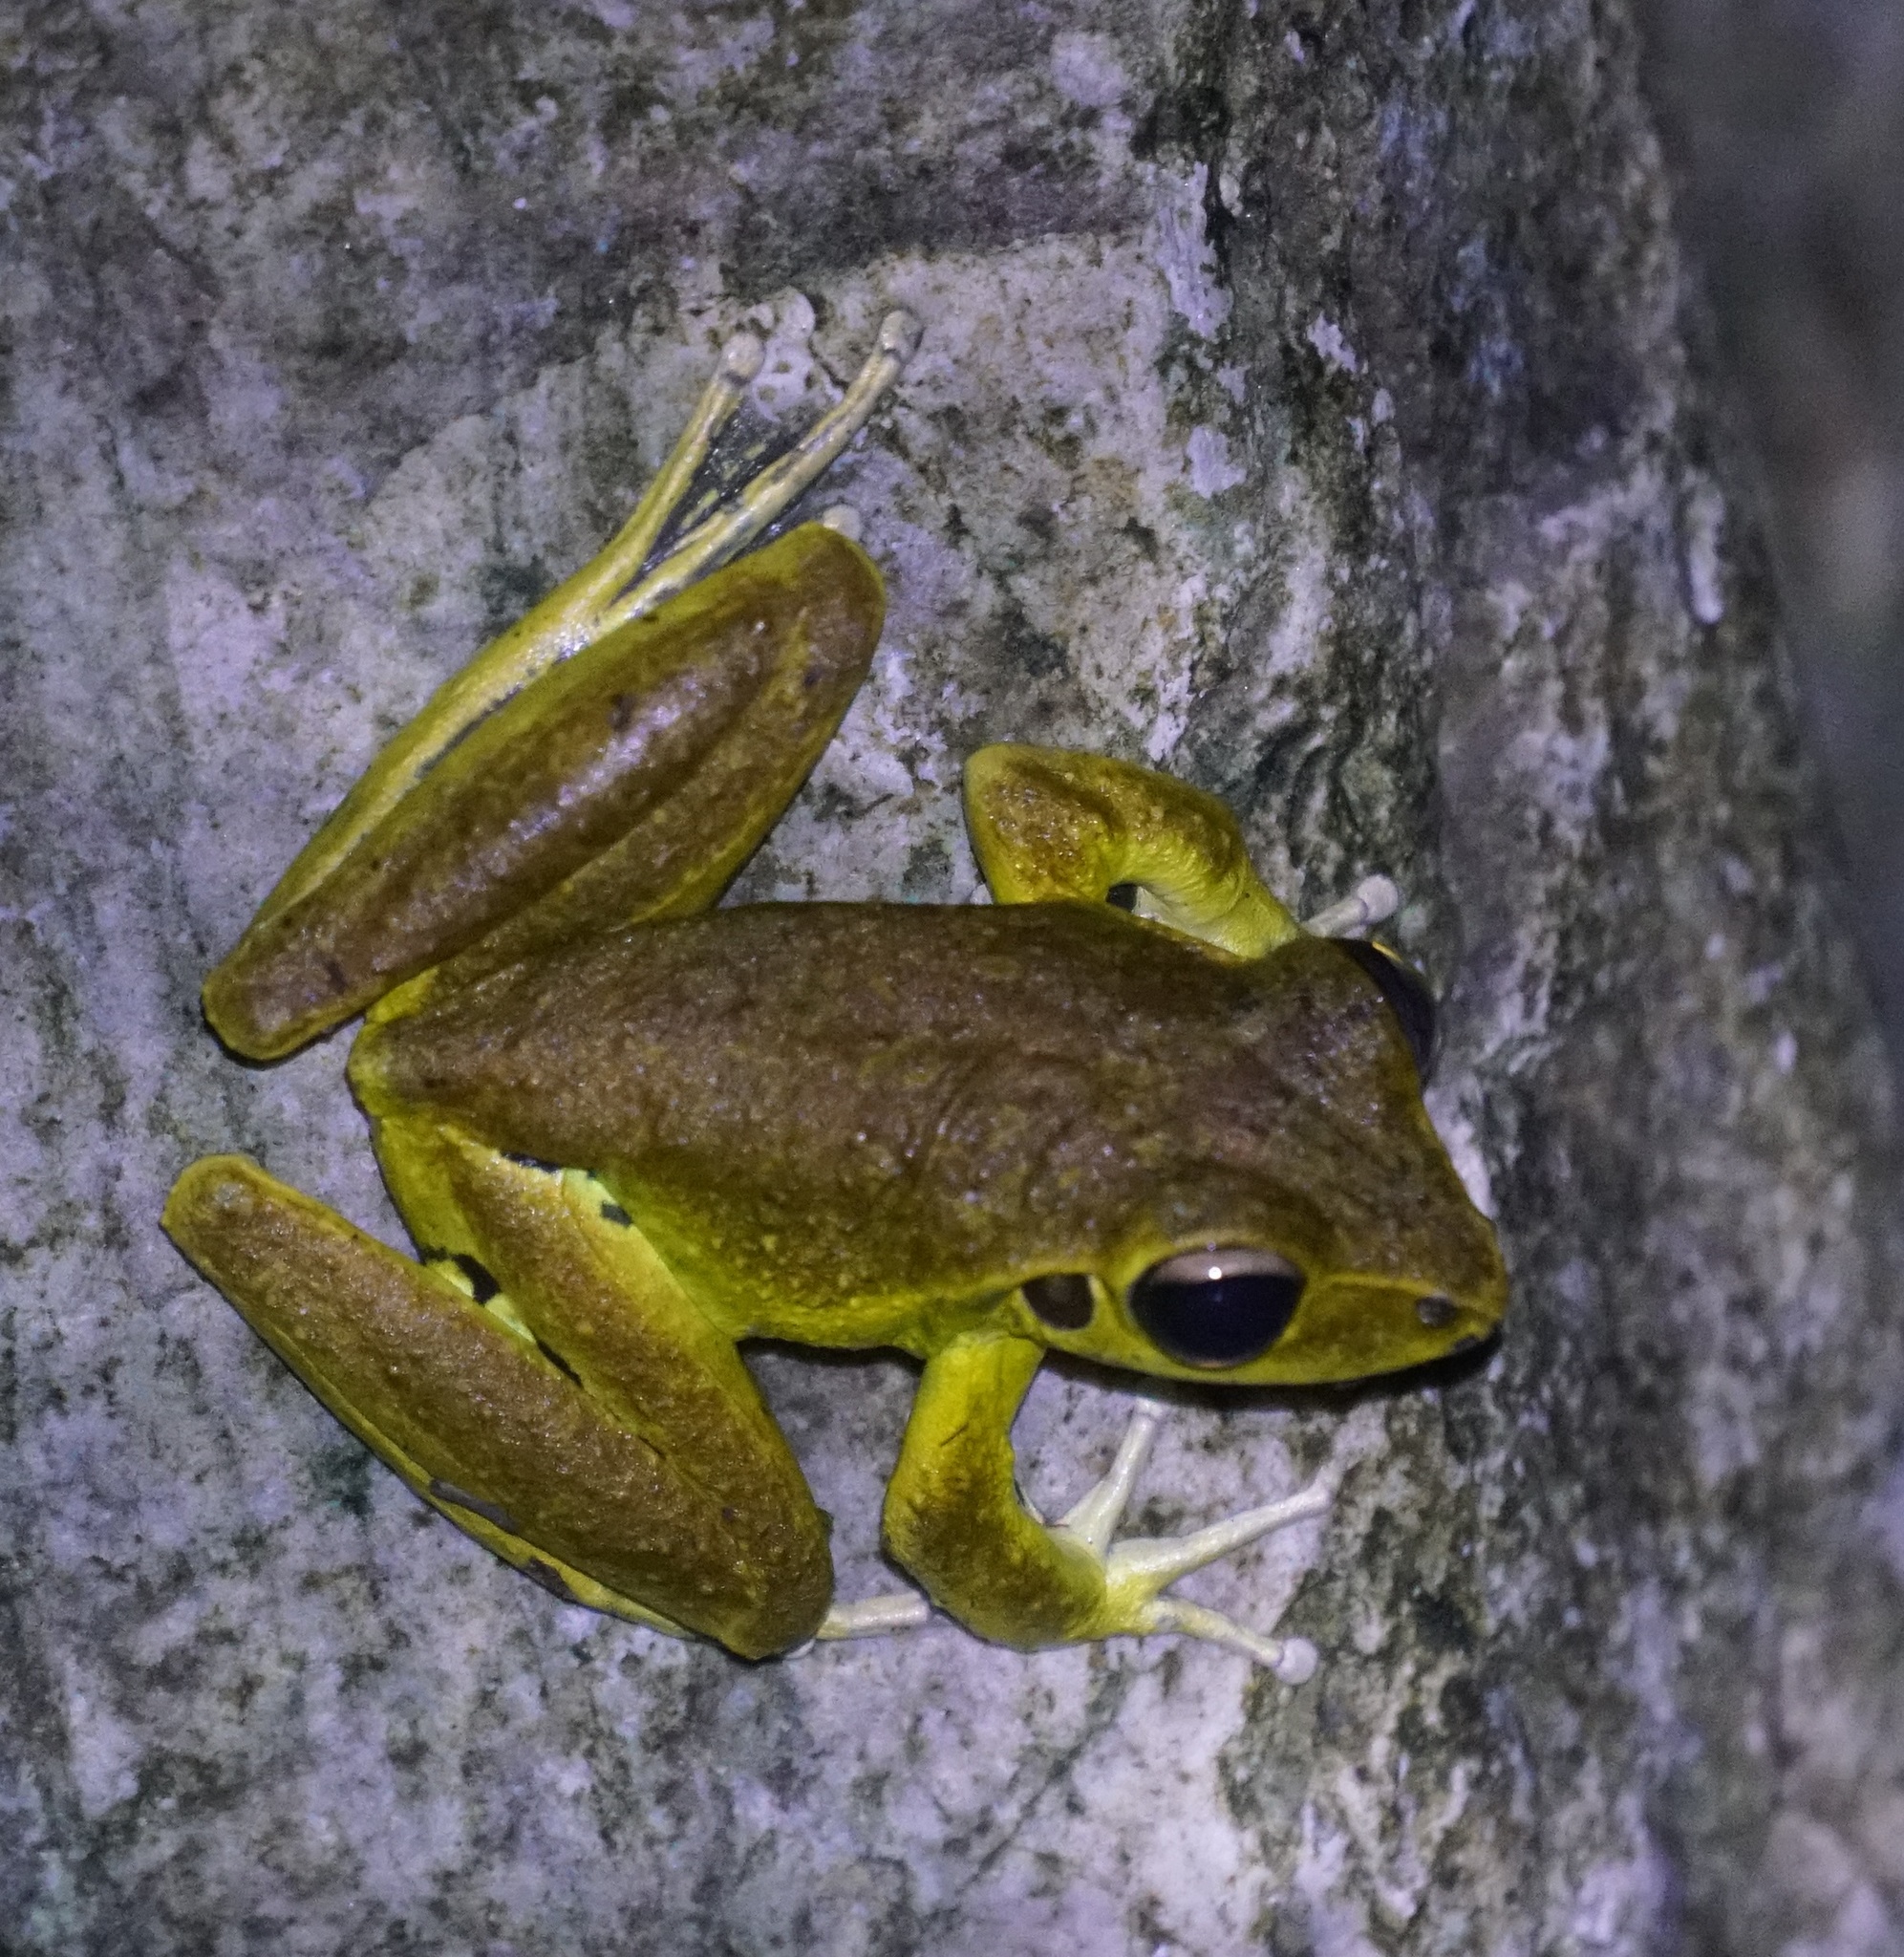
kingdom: Animalia
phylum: Chordata
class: Amphibia
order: Anura
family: Hylidae
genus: Ranoidea
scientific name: Ranoidea
